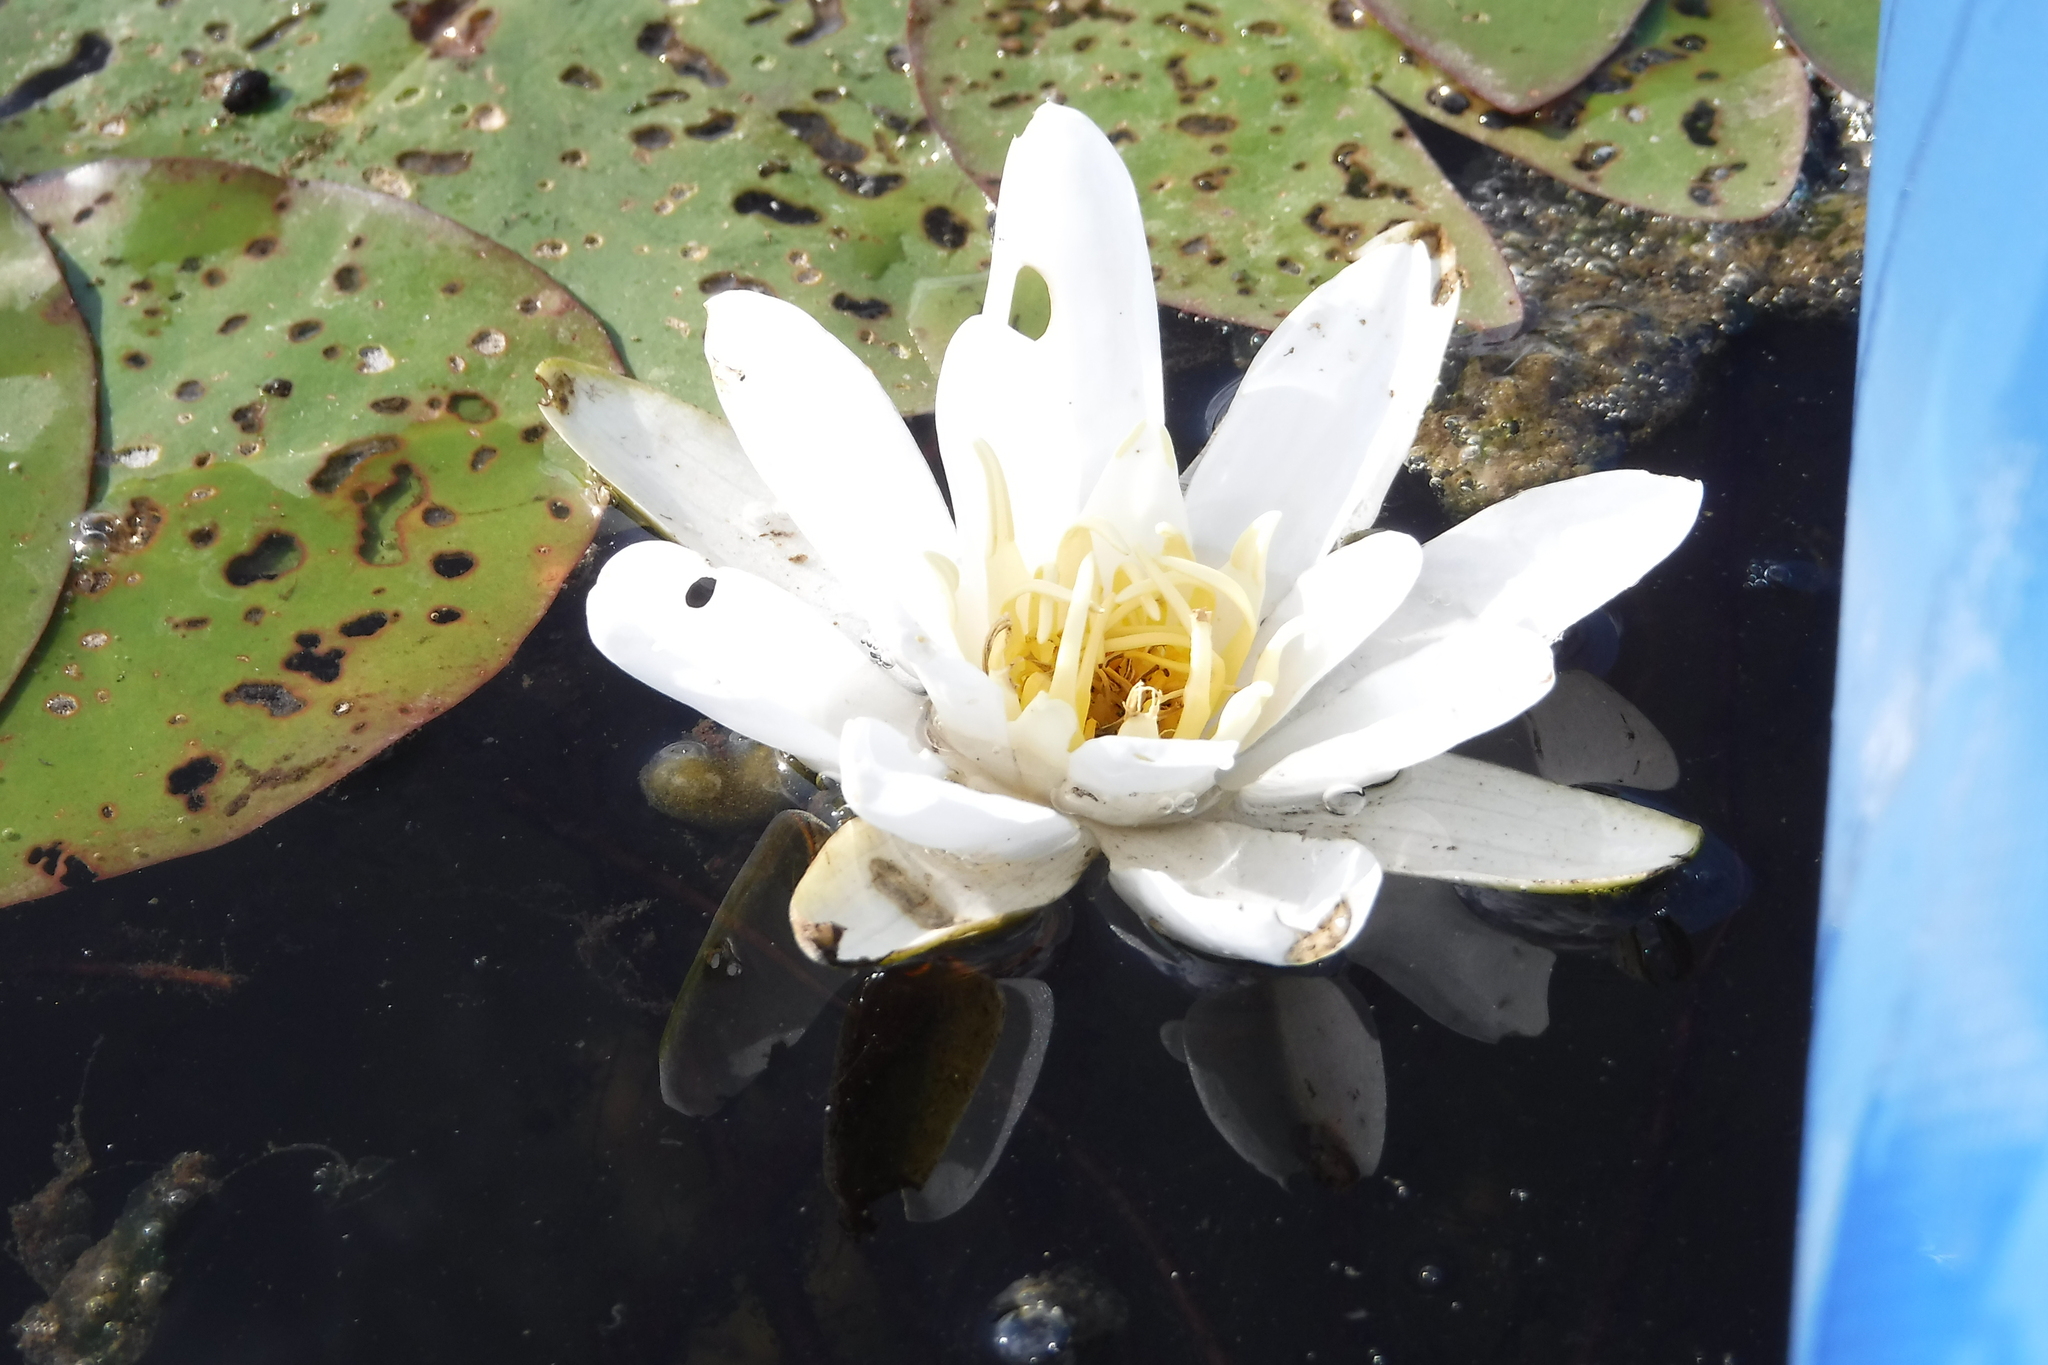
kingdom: Plantae
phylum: Tracheophyta
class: Magnoliopsida
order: Nymphaeales
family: Nymphaeaceae
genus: Nymphaea
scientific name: Nymphaea candida
